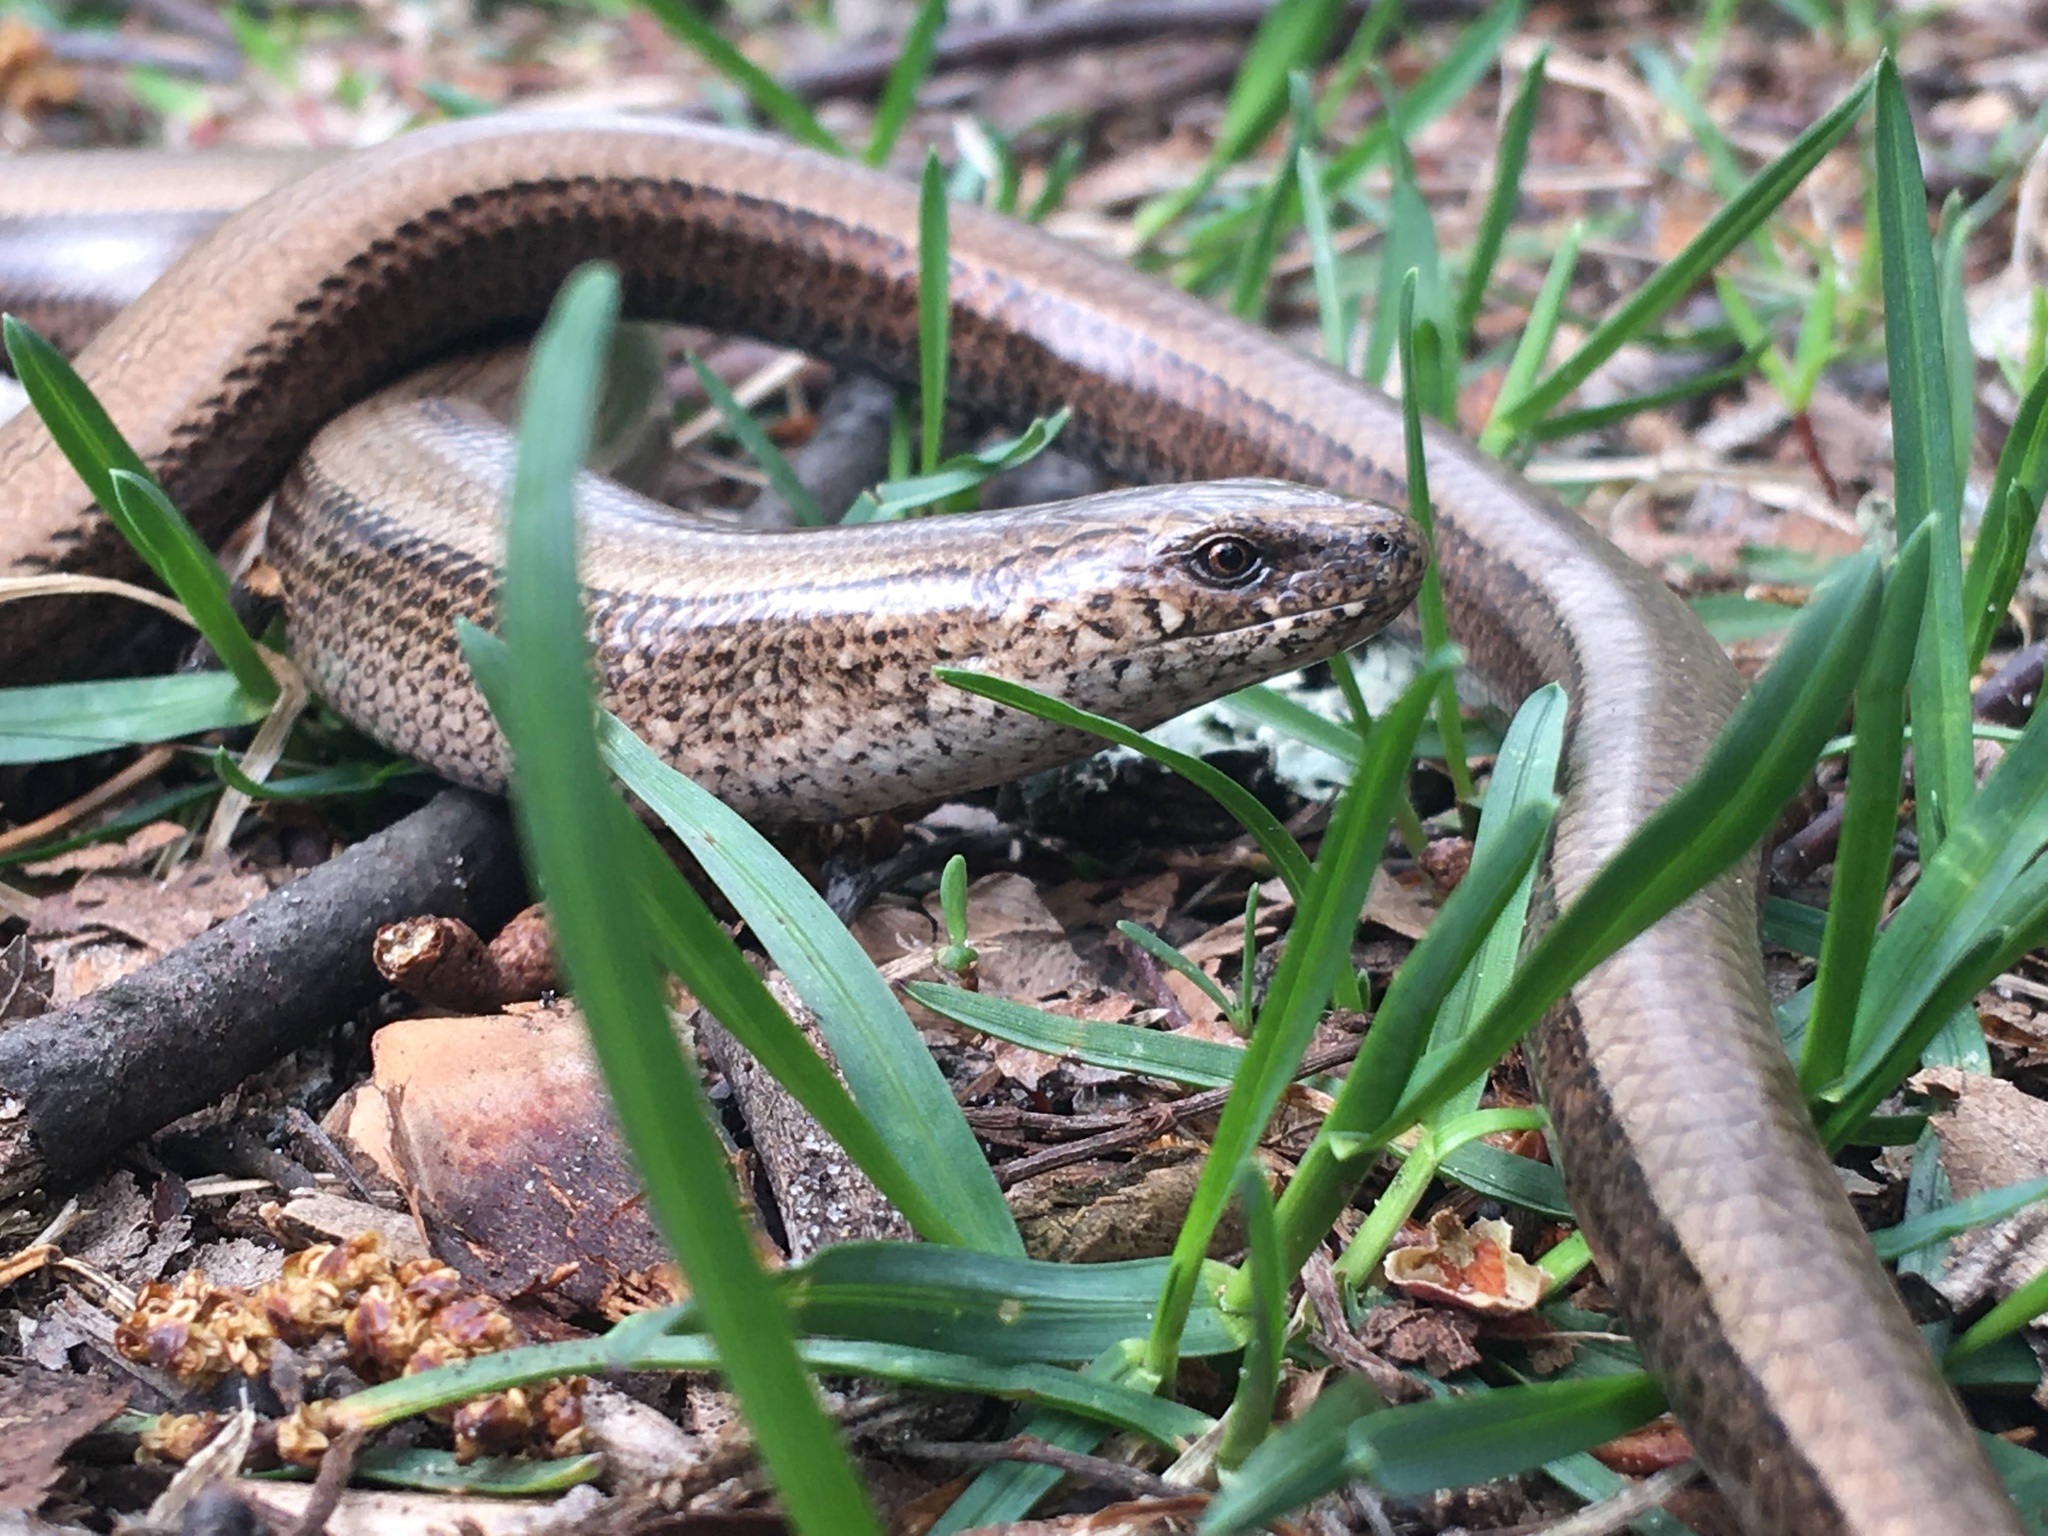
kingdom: Animalia
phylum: Chordata
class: Squamata
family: Anguidae
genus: Anguis
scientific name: Anguis
